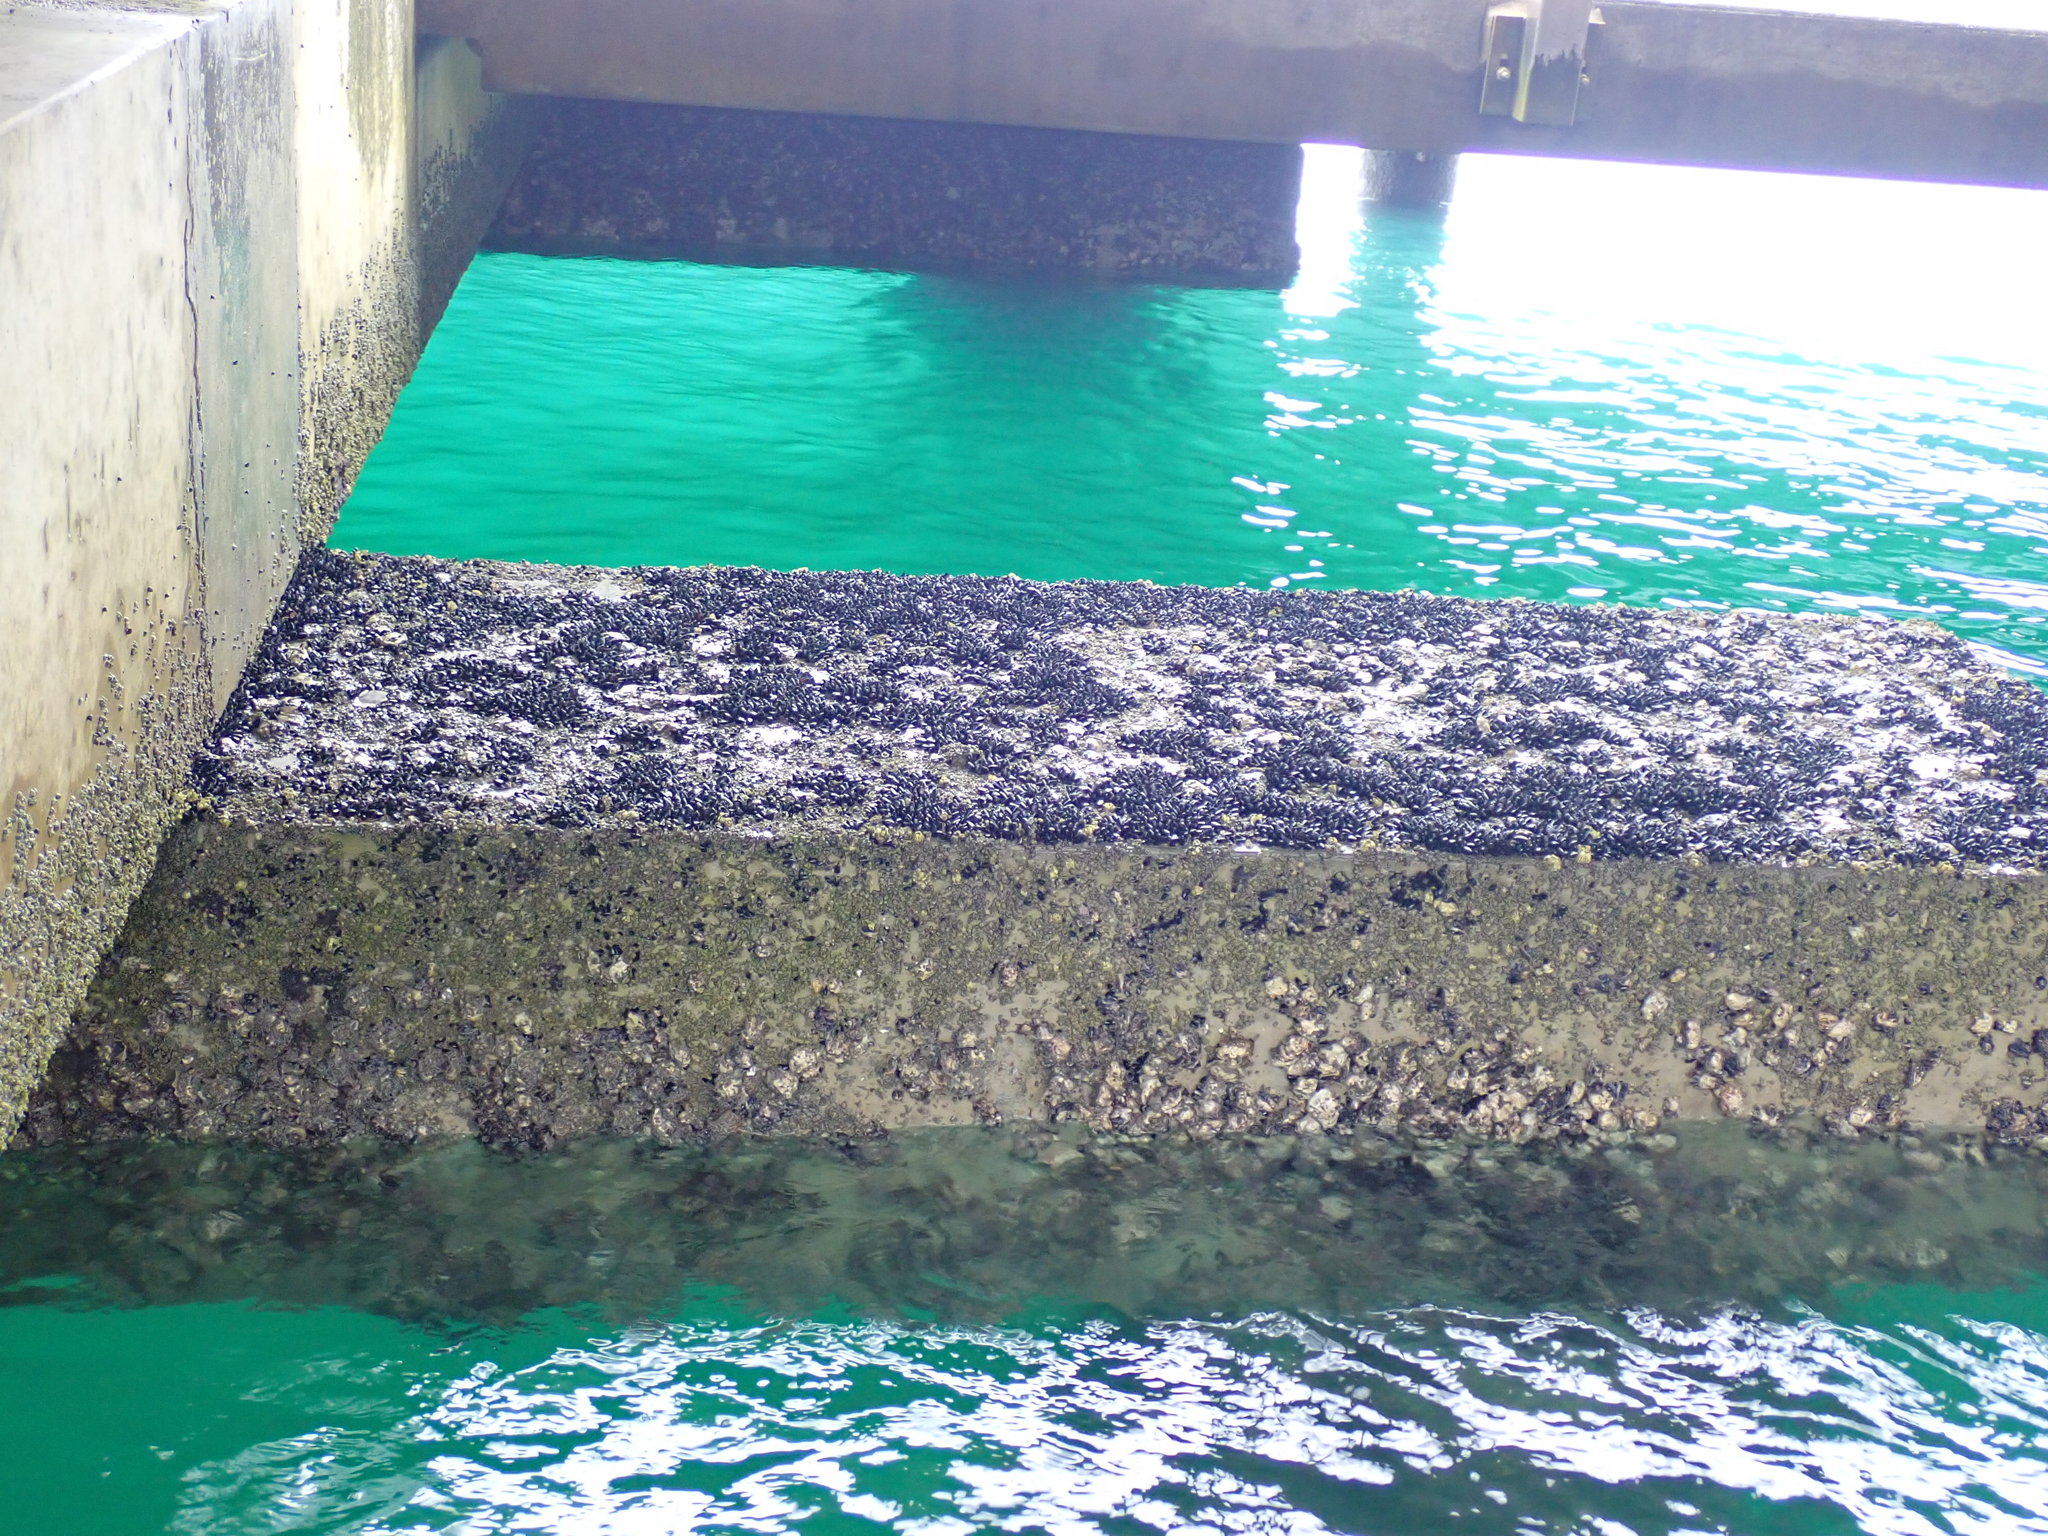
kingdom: Animalia
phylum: Mollusca
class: Bivalvia
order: Mytilida
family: Mytilidae
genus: Xenostrobus
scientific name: Xenostrobus neozelanicus
